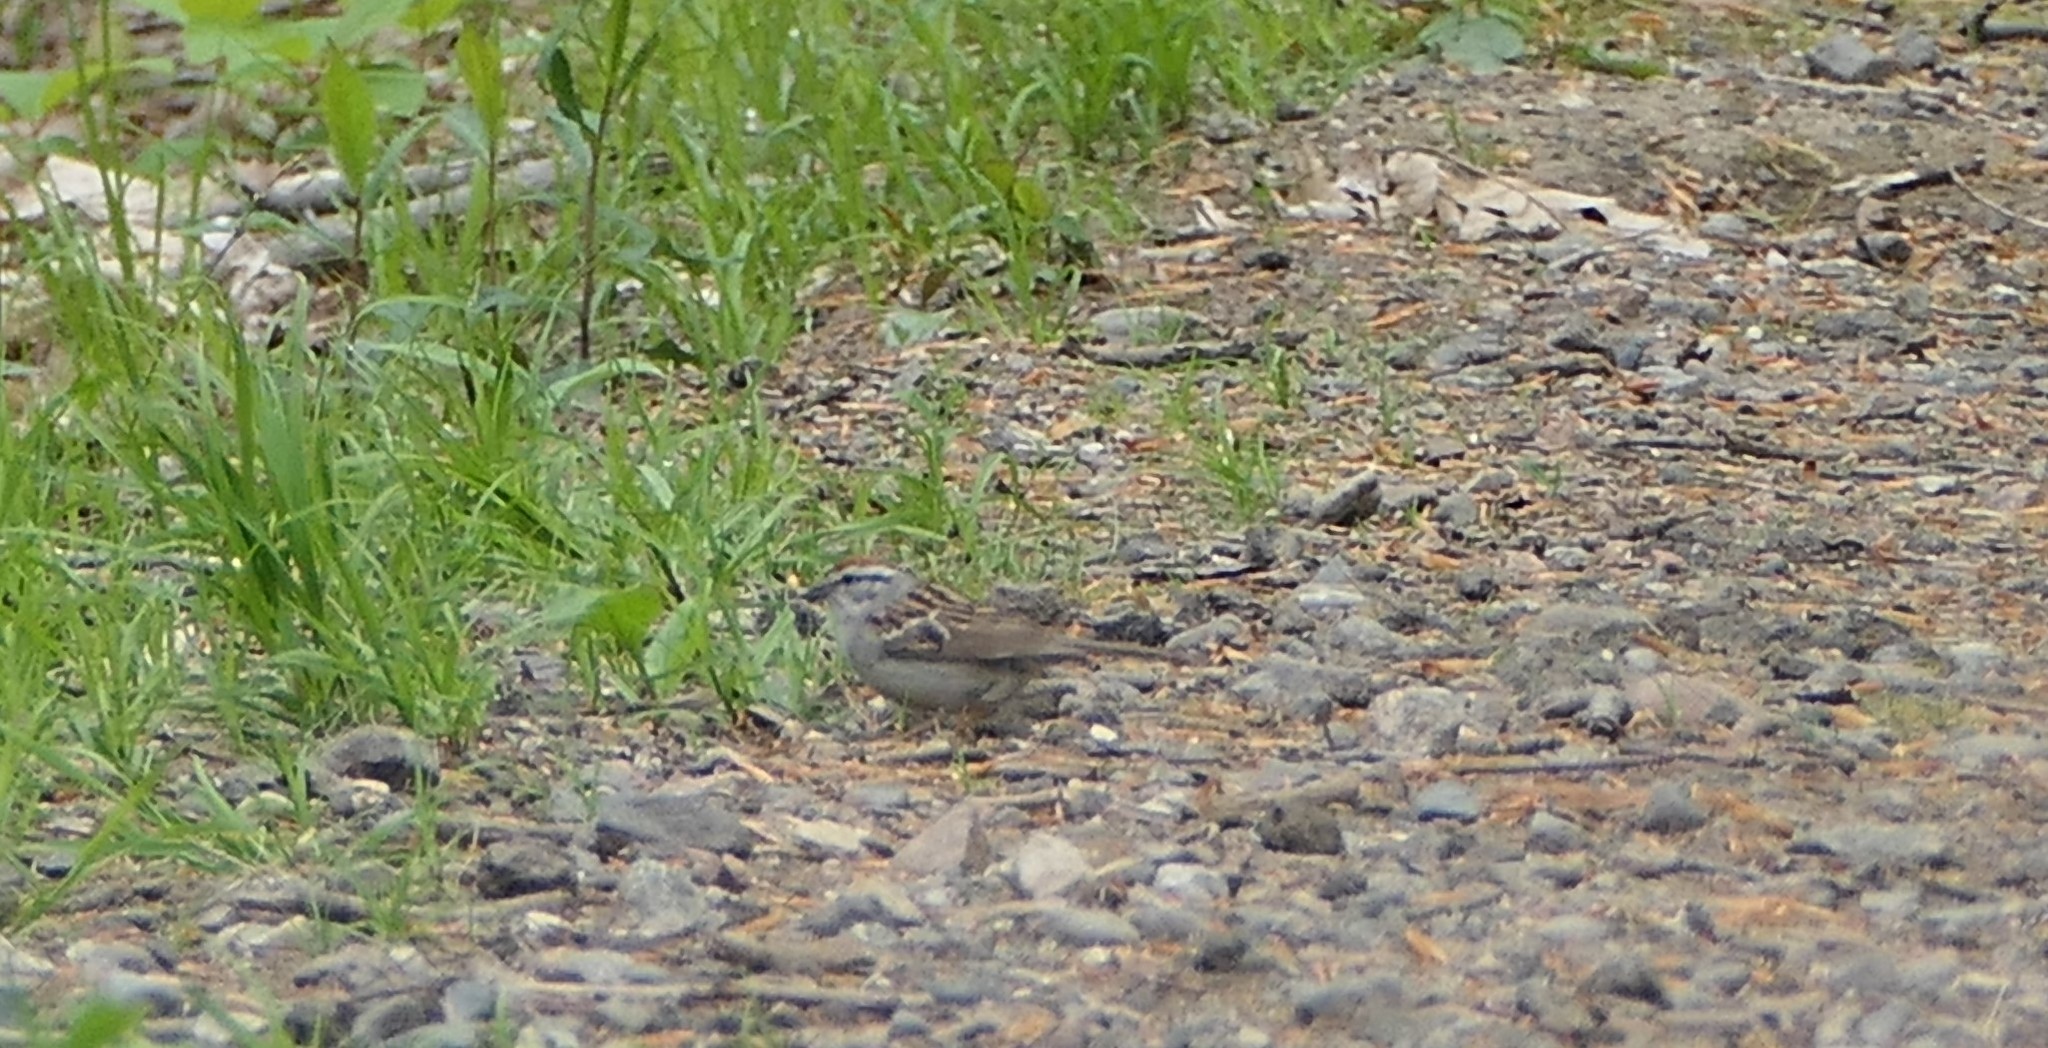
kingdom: Animalia
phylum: Chordata
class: Aves
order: Passeriformes
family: Passerellidae
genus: Spizella
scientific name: Spizella passerina
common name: Chipping sparrow
